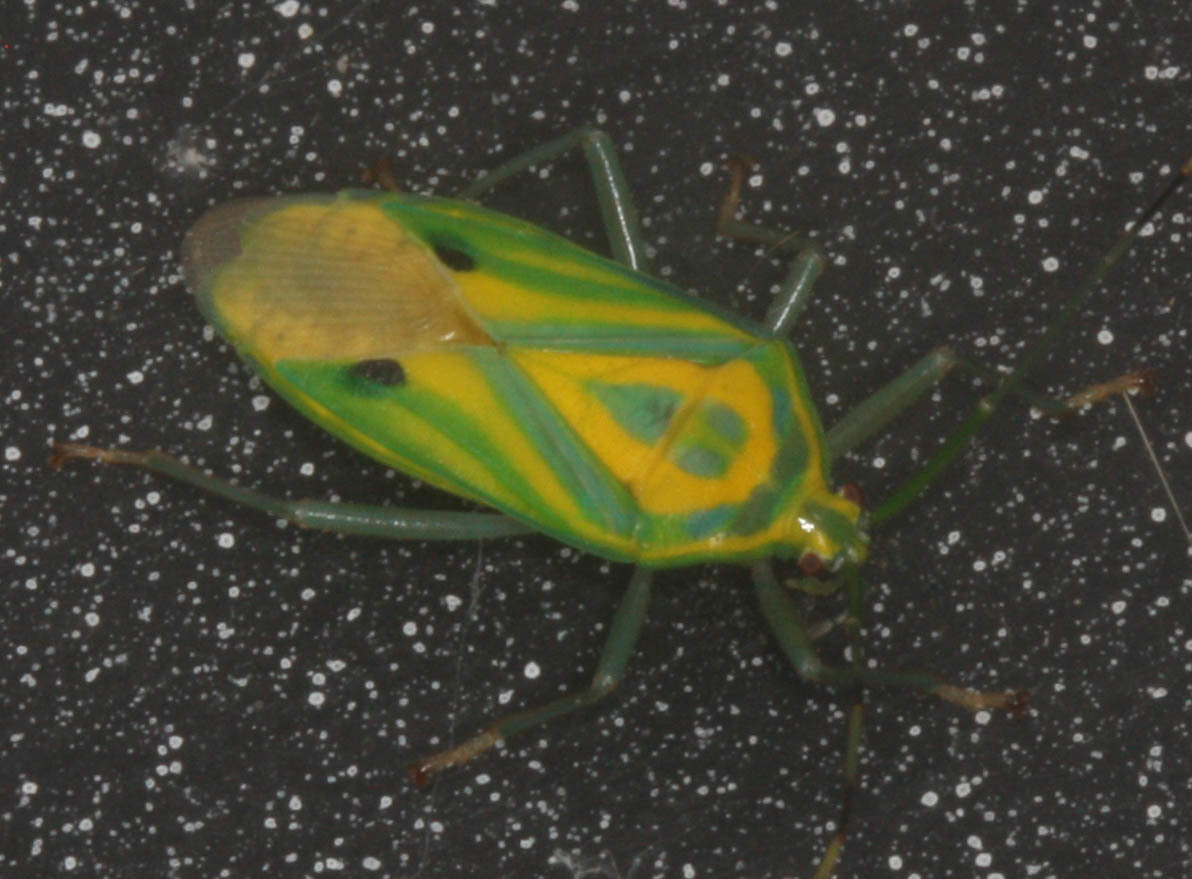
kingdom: Animalia
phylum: Arthropoda
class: Insecta
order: Hemiptera
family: Urostylididae
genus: Urolabida
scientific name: Urolabida
